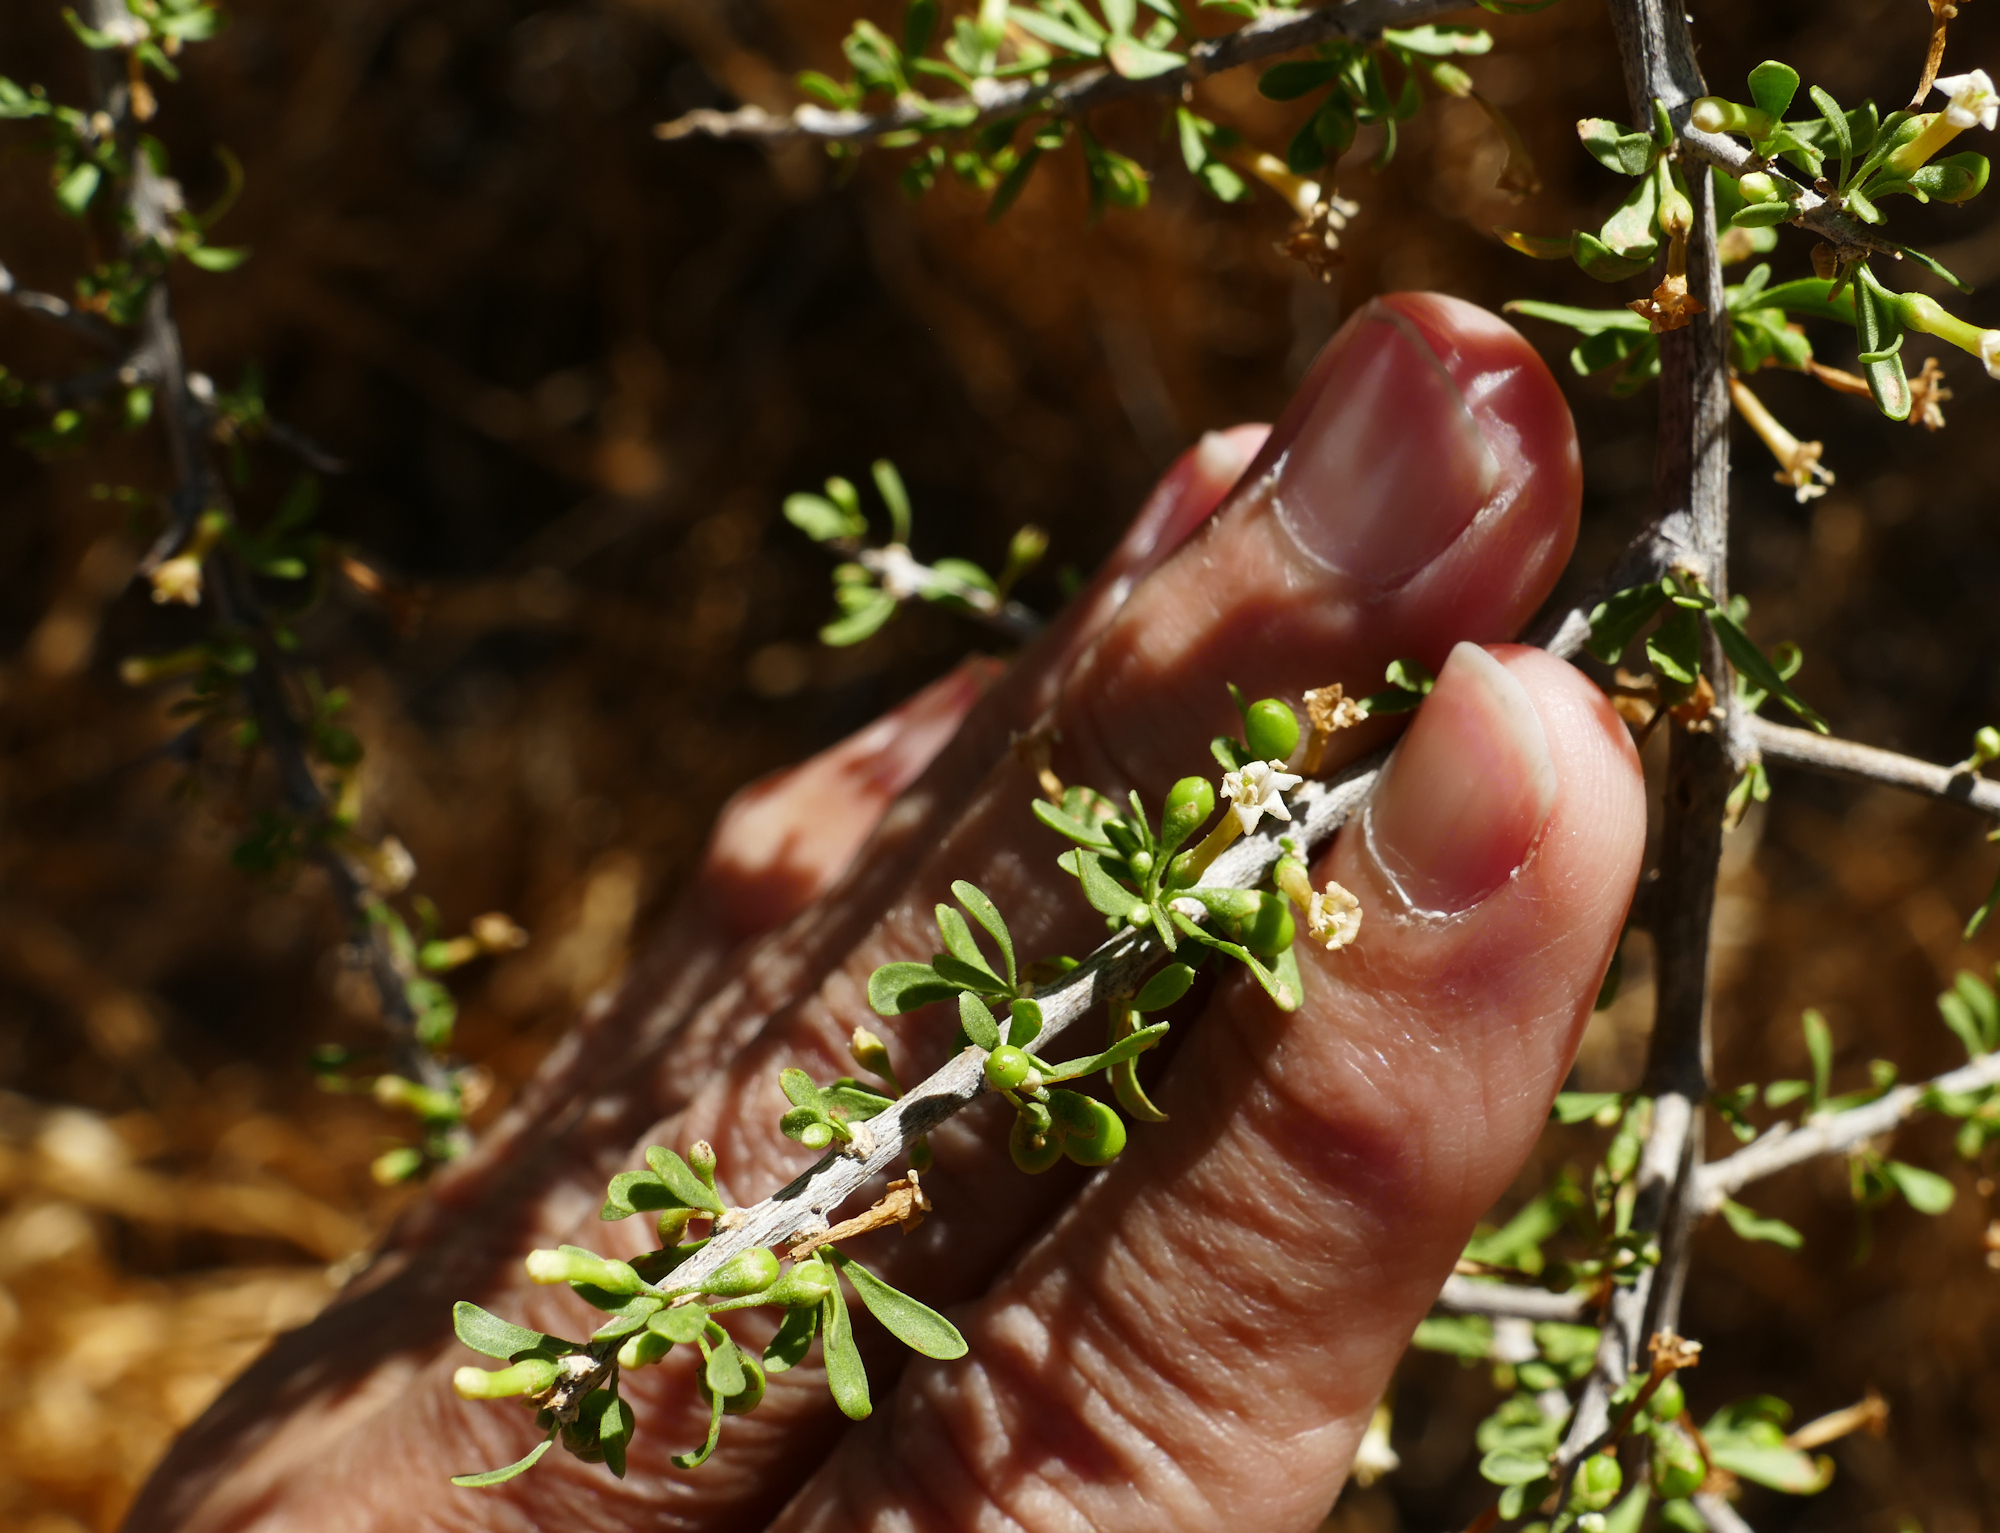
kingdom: Plantae
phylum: Tracheophyta
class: Magnoliopsida
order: Solanales
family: Solanaceae
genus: Lycium
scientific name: Lycium andersonii
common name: Water-jacket
